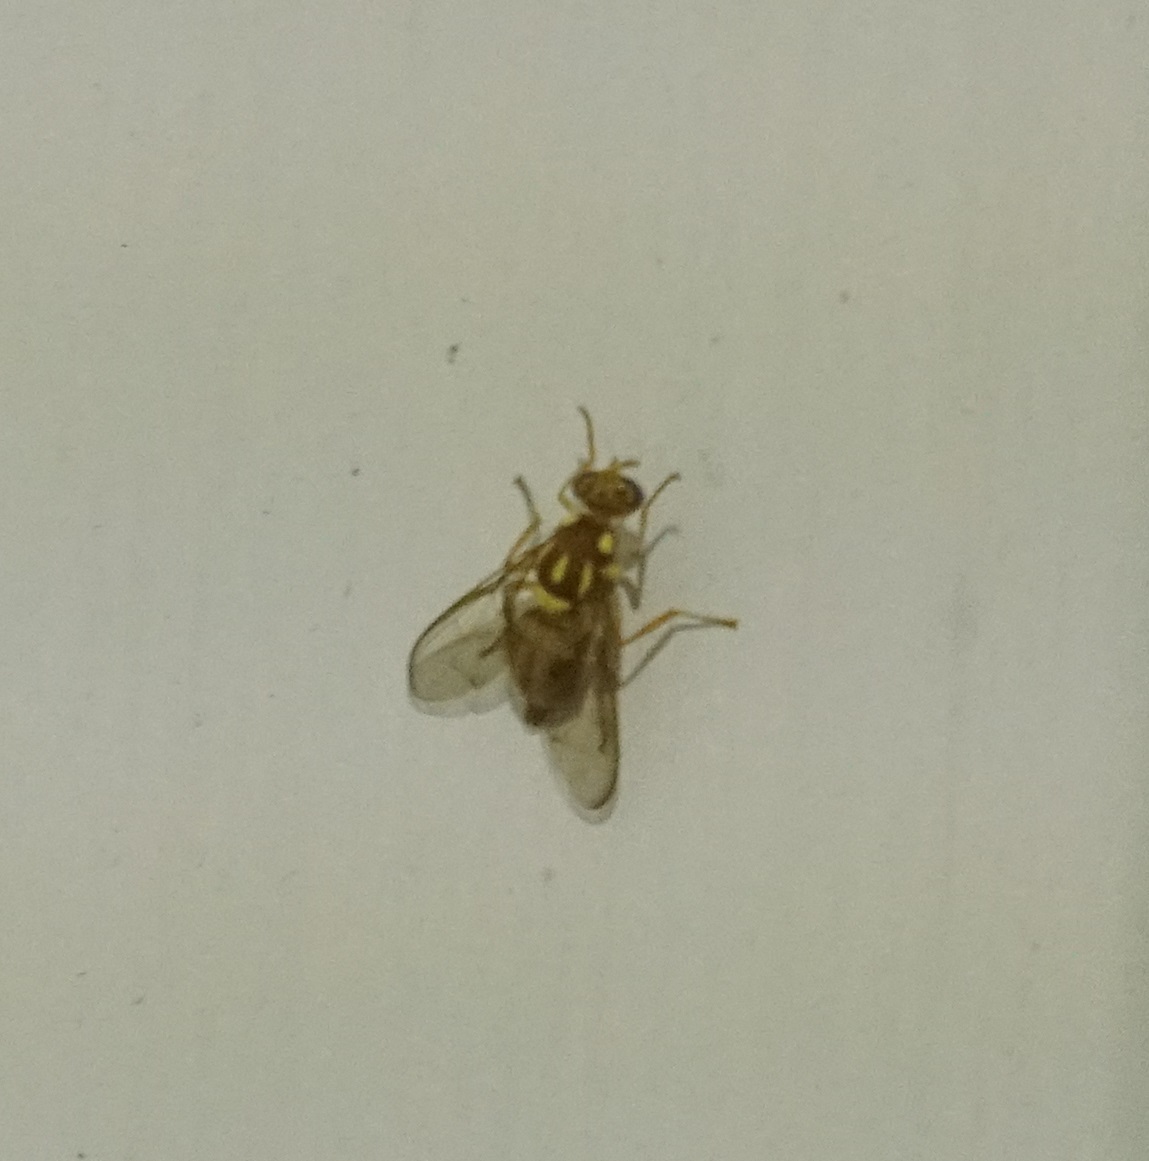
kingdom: Animalia
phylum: Arthropoda
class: Insecta
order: Diptera
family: Tephritidae
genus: Zeugodacus
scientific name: Zeugodacus cucumis
